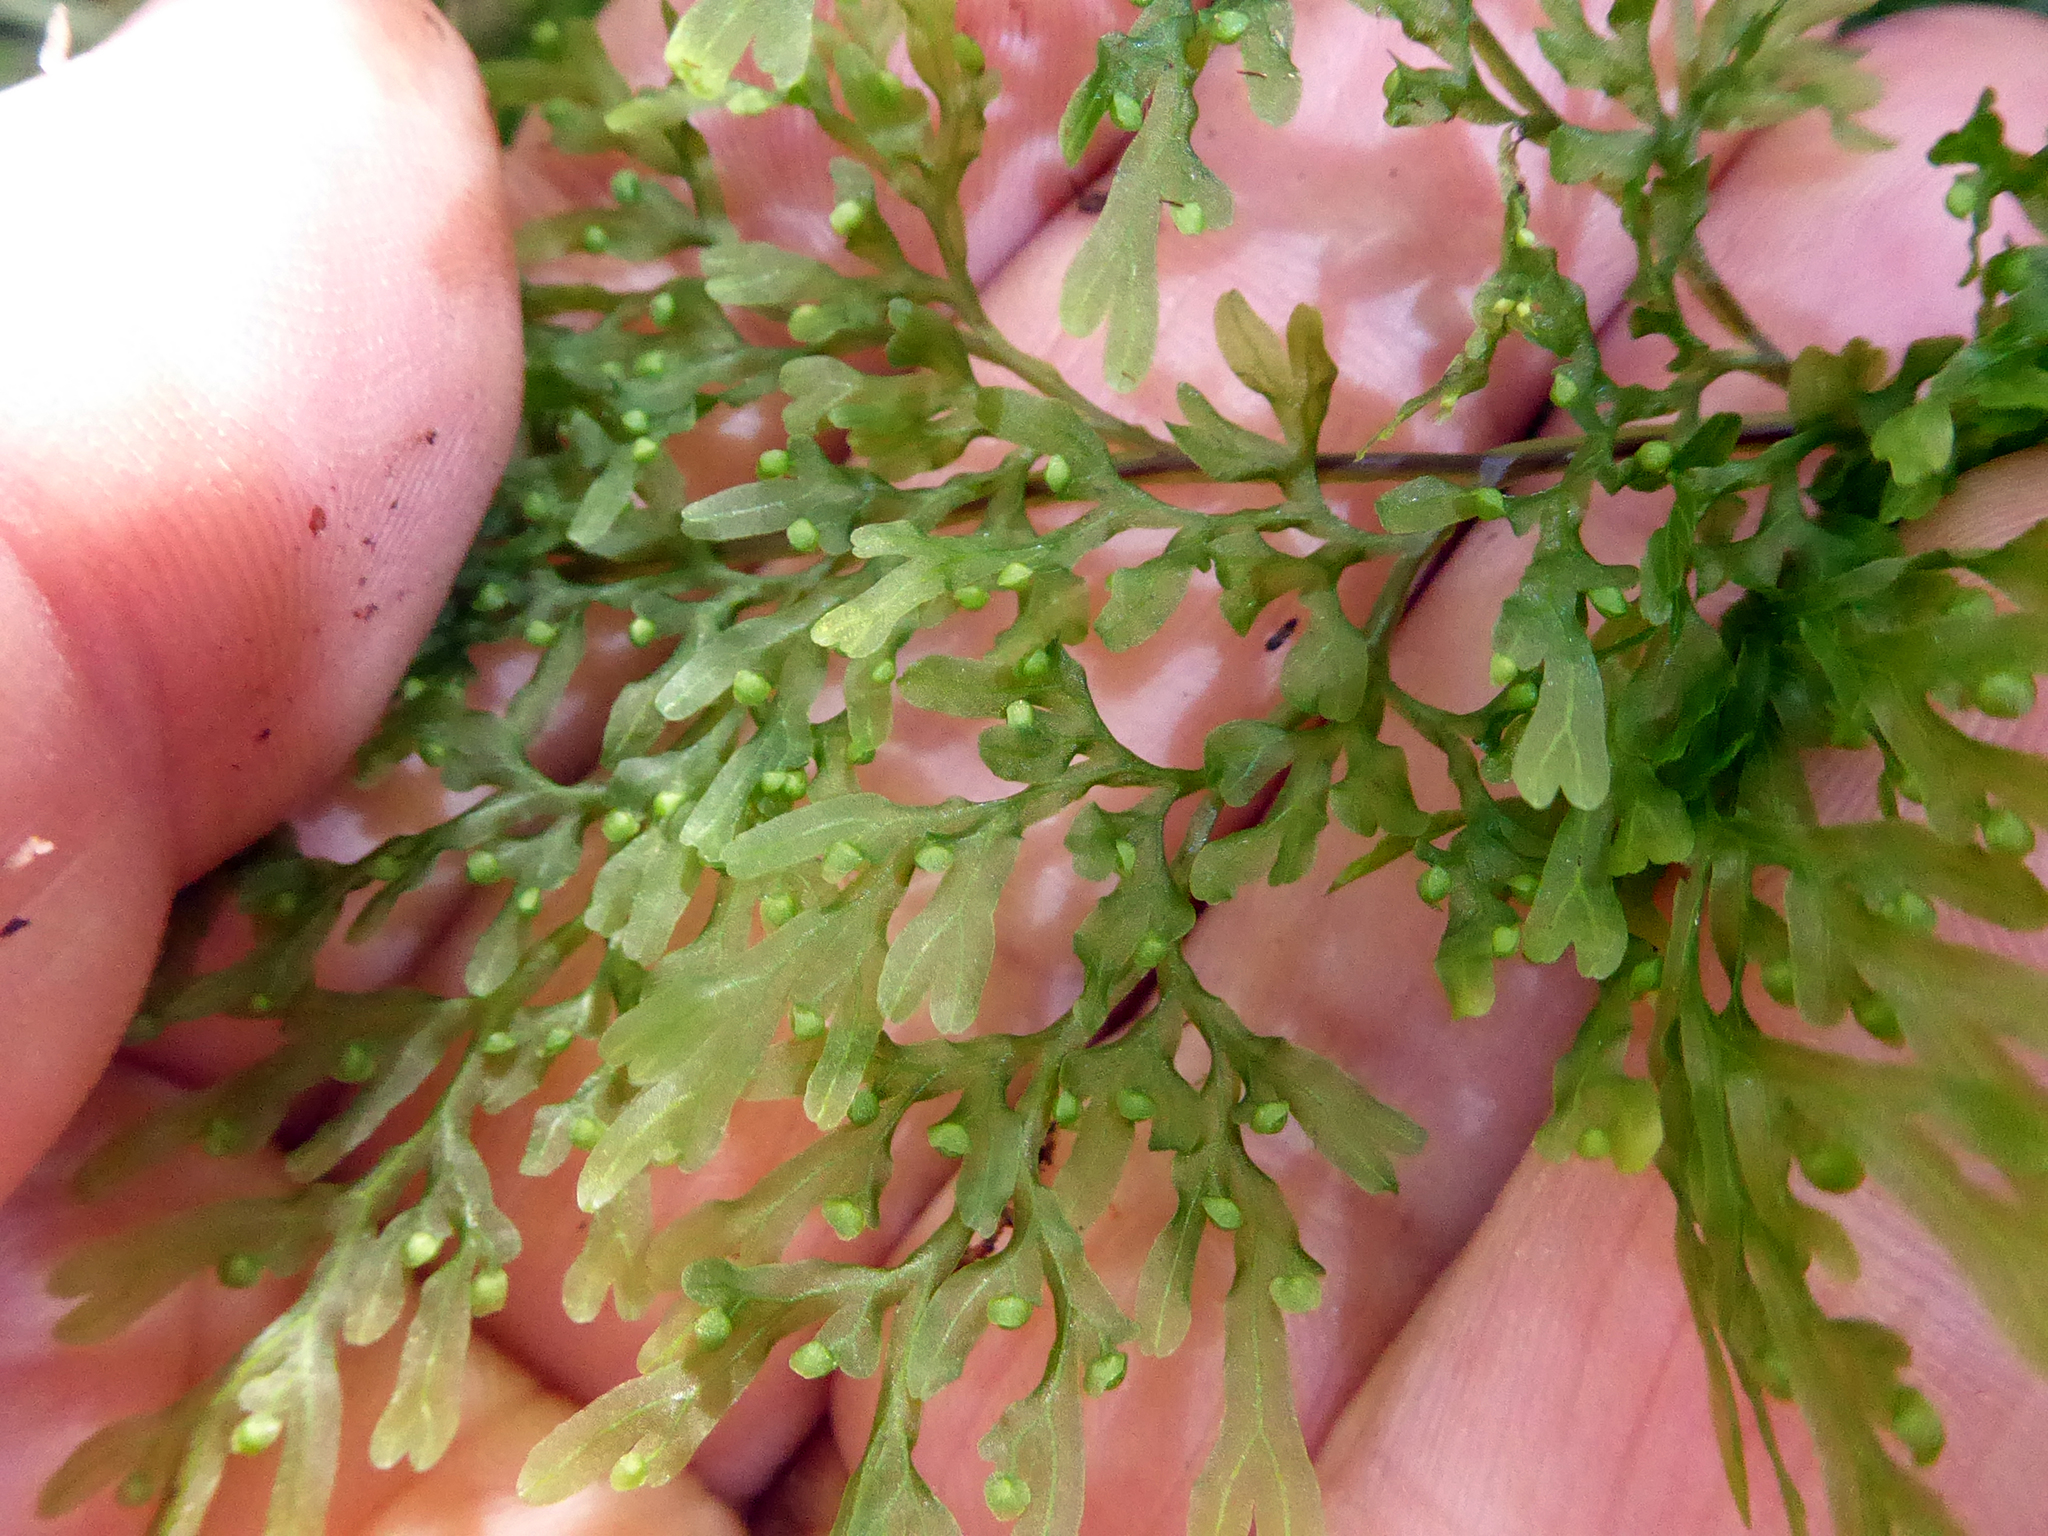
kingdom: Plantae
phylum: Tracheophyta
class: Polypodiopsida
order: Hymenophyllales
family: Hymenophyllaceae
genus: Hymenophyllum
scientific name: Hymenophyllum pulcherrimum
